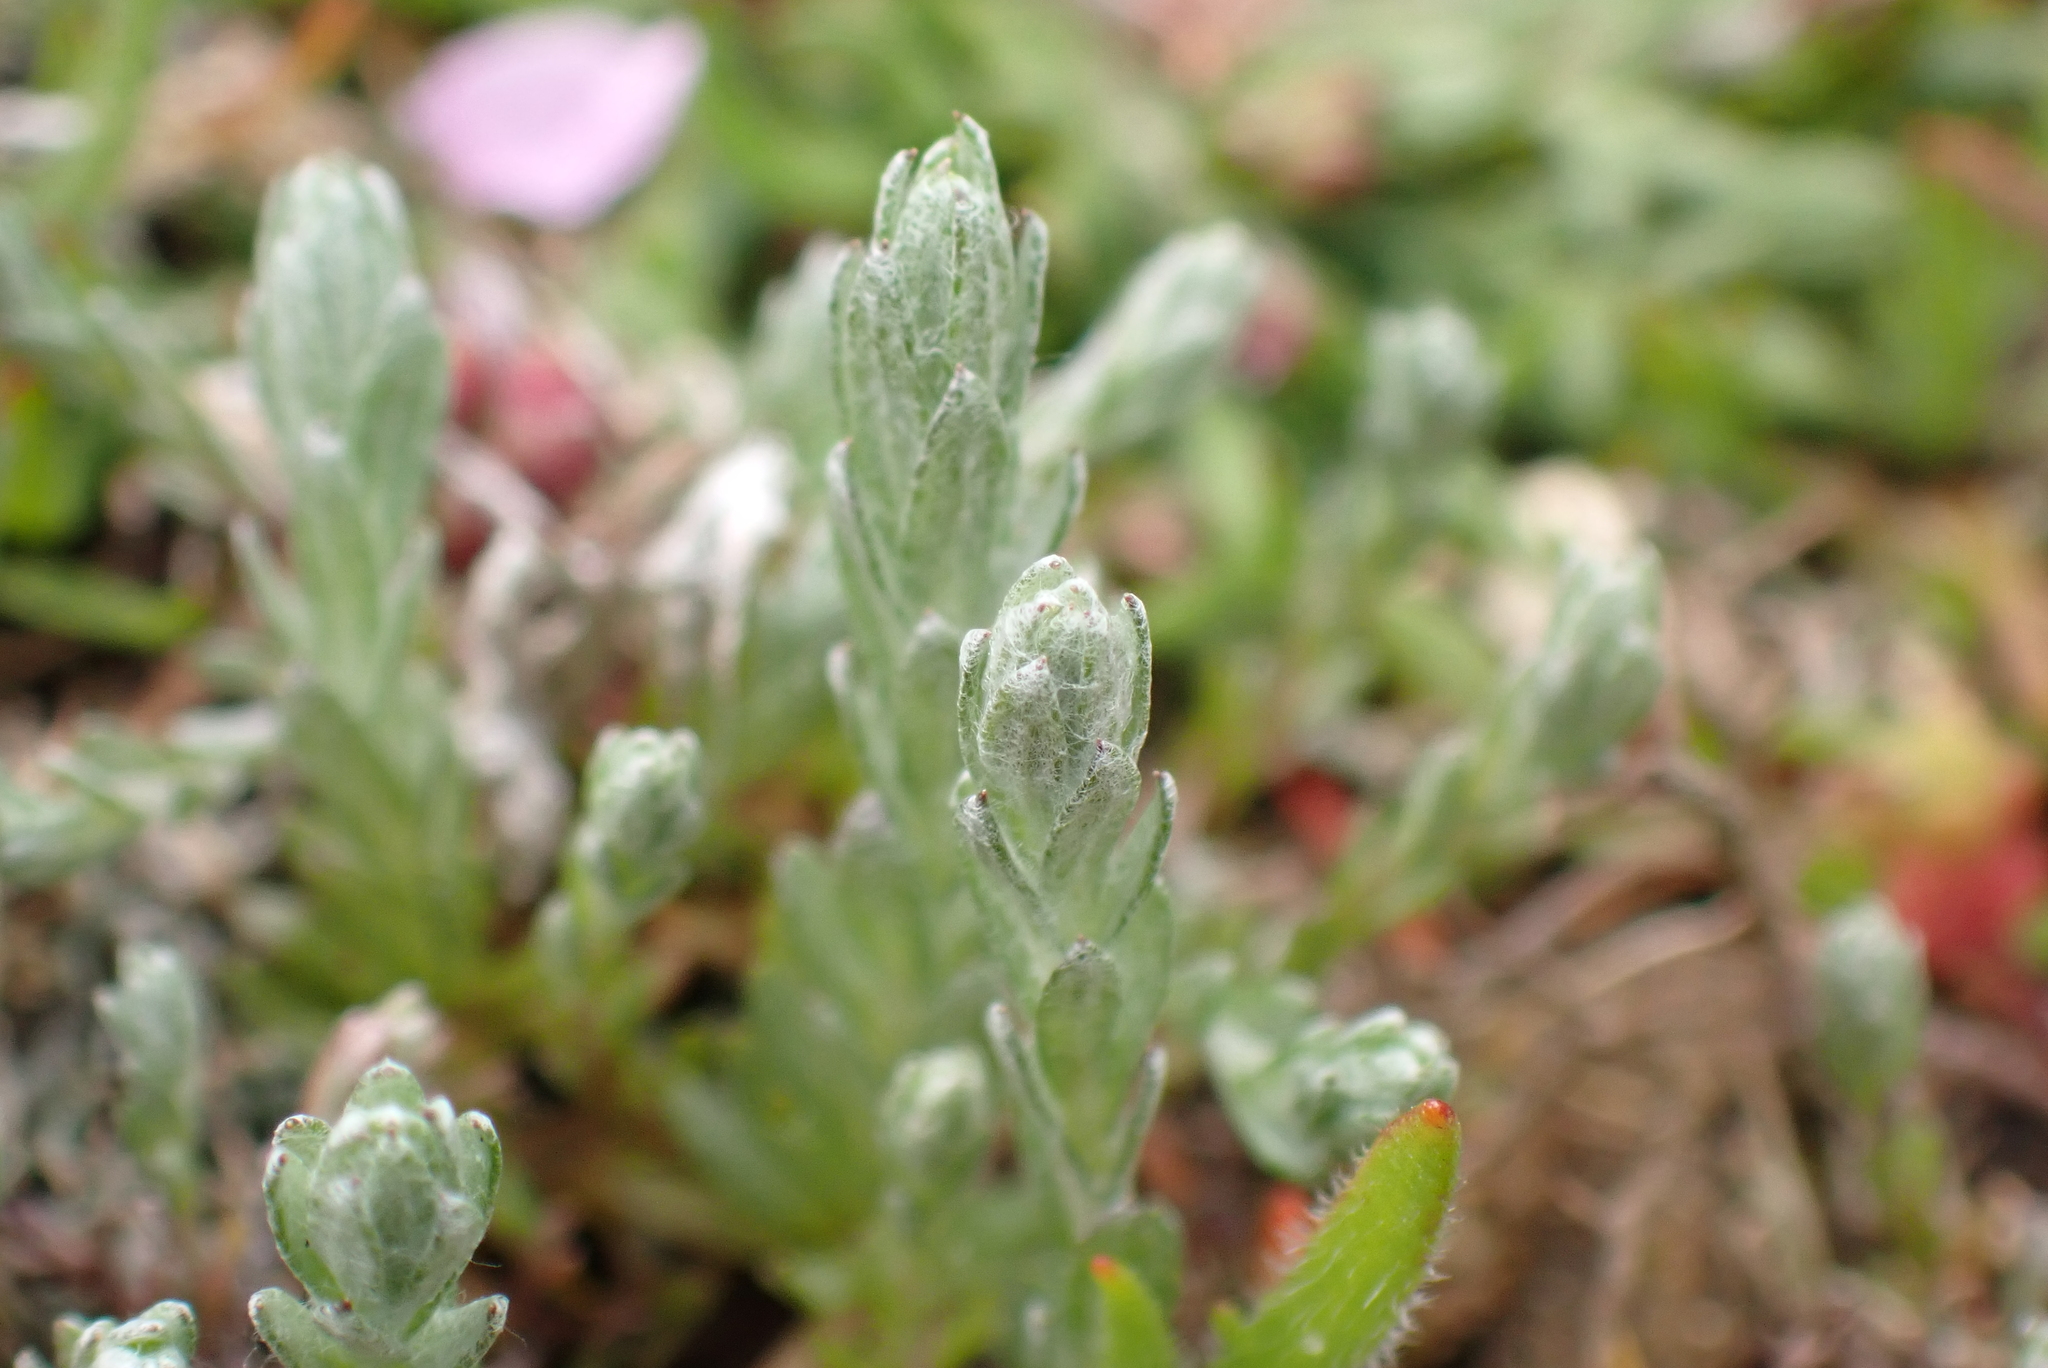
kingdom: Plantae
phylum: Tracheophyta
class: Magnoliopsida
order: Asterales
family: Asteraceae
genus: Logfia
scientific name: Logfia minima
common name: Little cottonrose
